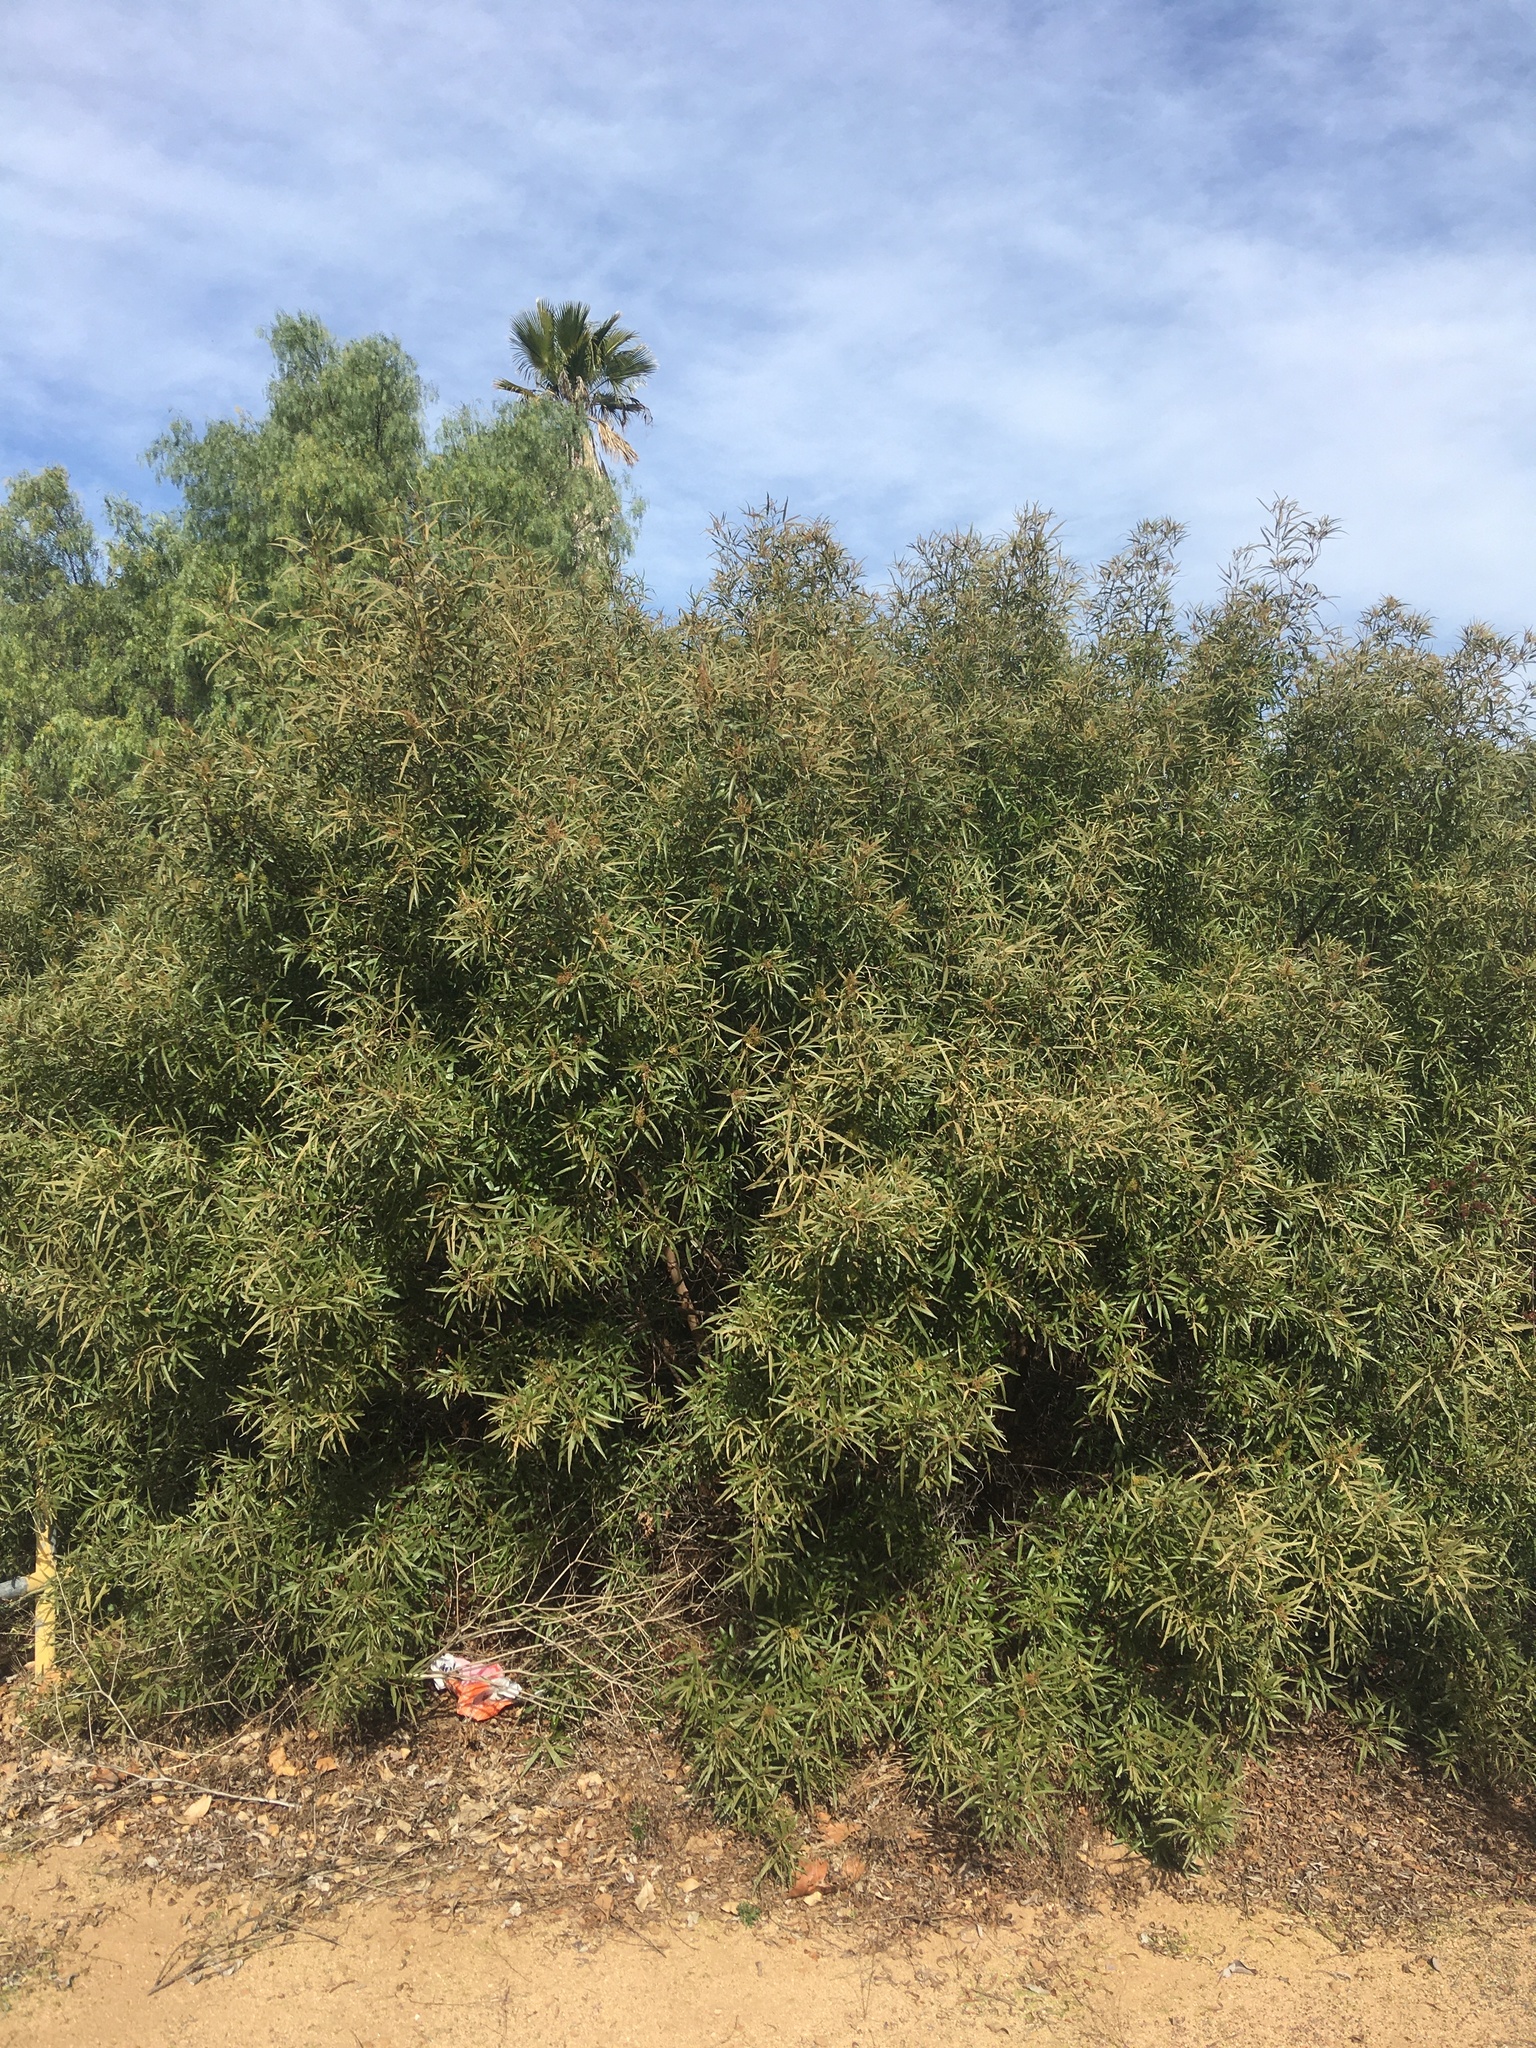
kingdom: Plantae
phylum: Tracheophyta
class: Magnoliopsida
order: Sapindales
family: Anacardiaceae
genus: Searsia
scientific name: Searsia lancea
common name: Cashew
